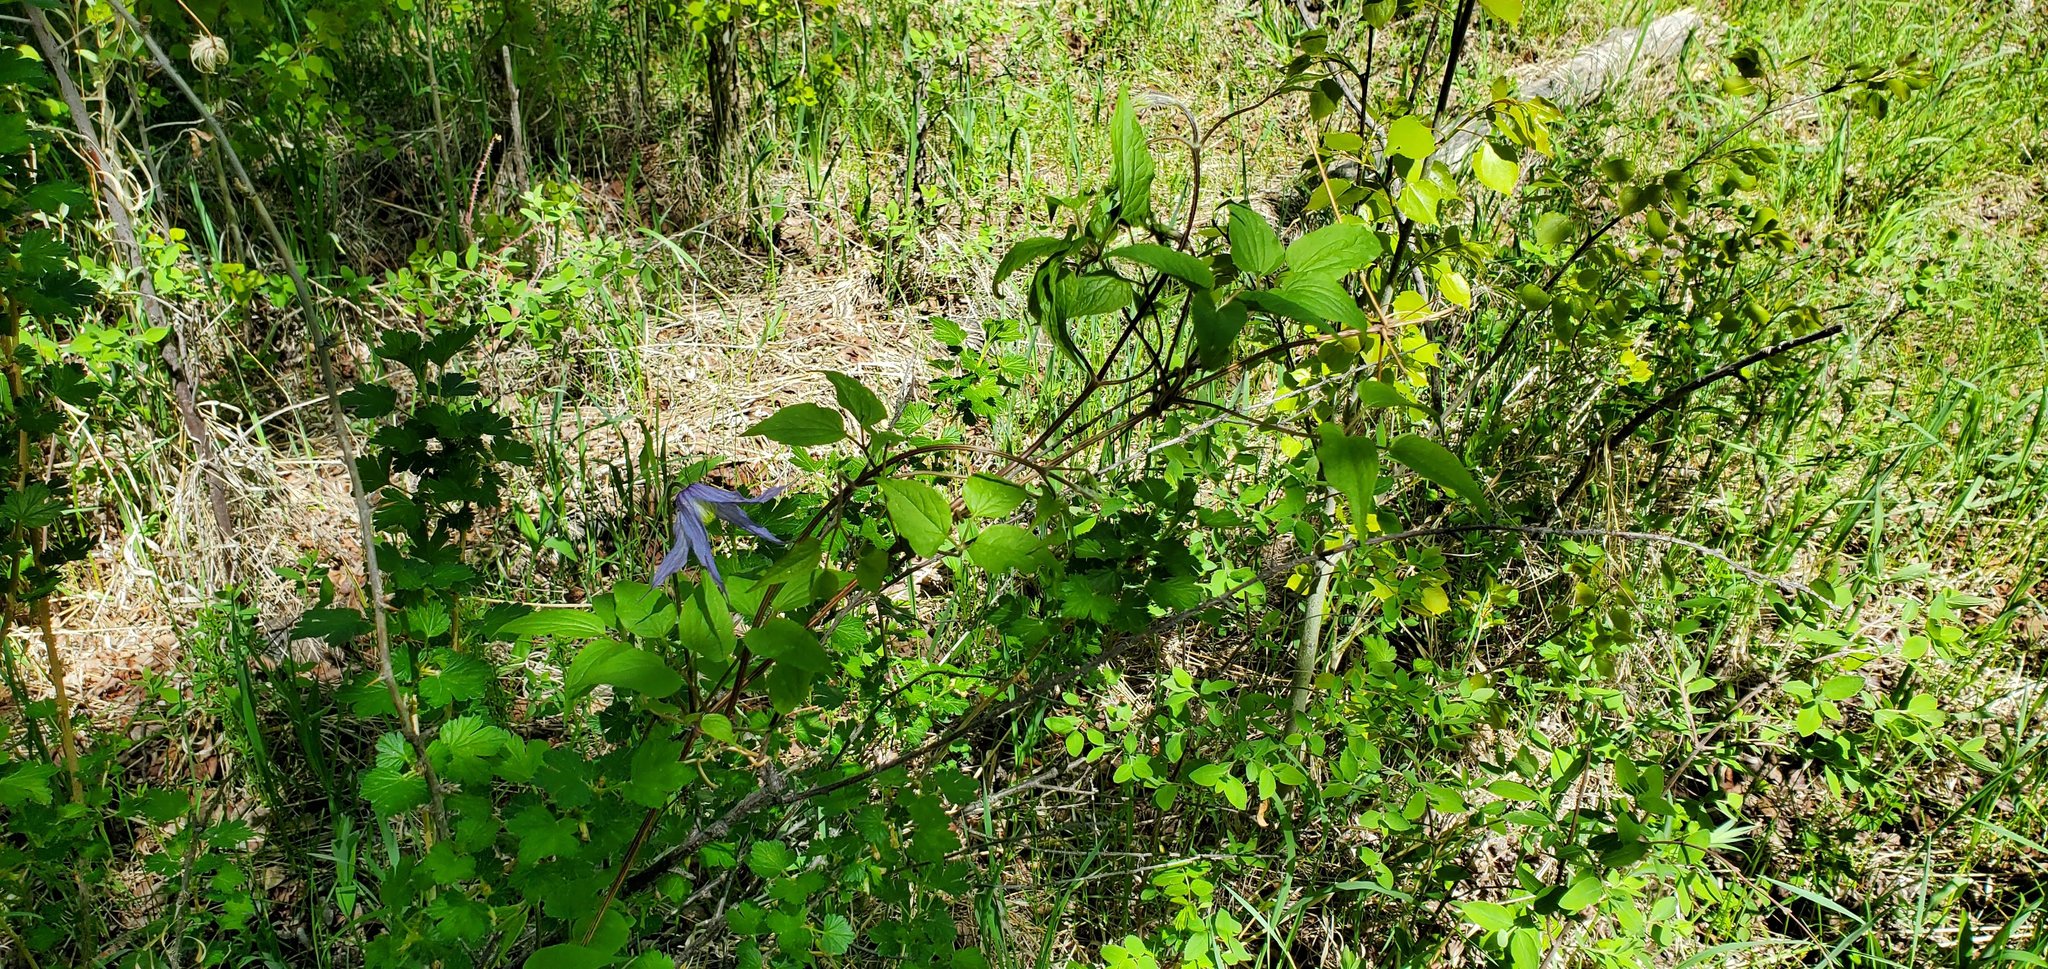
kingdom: Plantae
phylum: Tracheophyta
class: Magnoliopsida
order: Ranunculales
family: Ranunculaceae
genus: Clematis
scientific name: Clematis occidentalis
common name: Purple clematis
